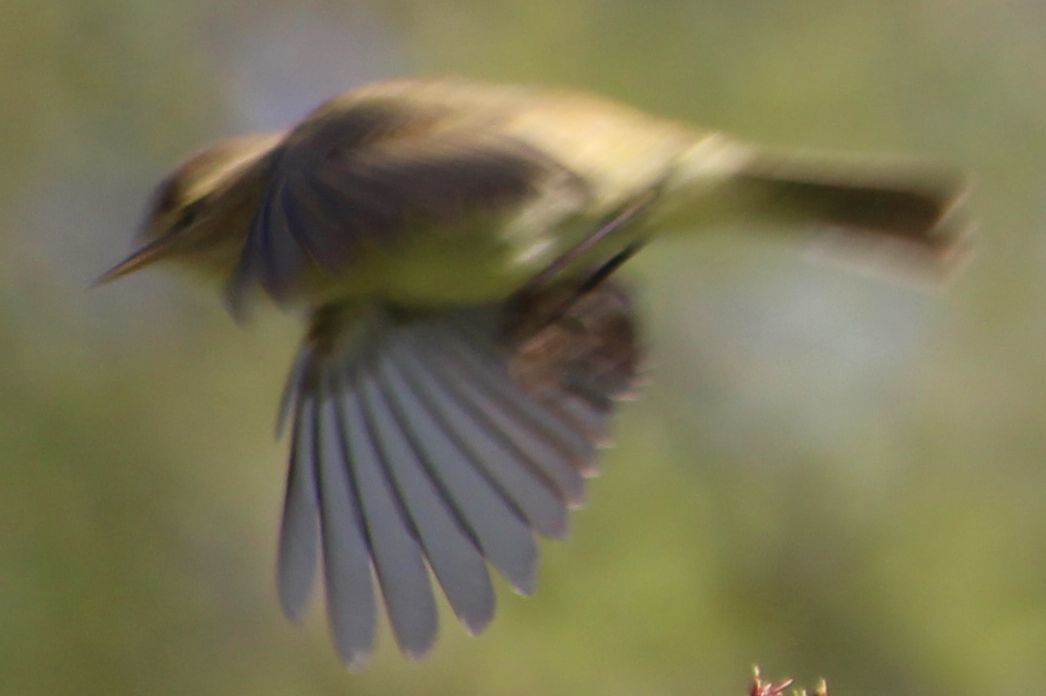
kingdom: Animalia
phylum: Chordata
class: Aves
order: Passeriformes
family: Phylloscopidae
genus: Phylloscopus
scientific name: Phylloscopus collybita
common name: Common chiffchaff
